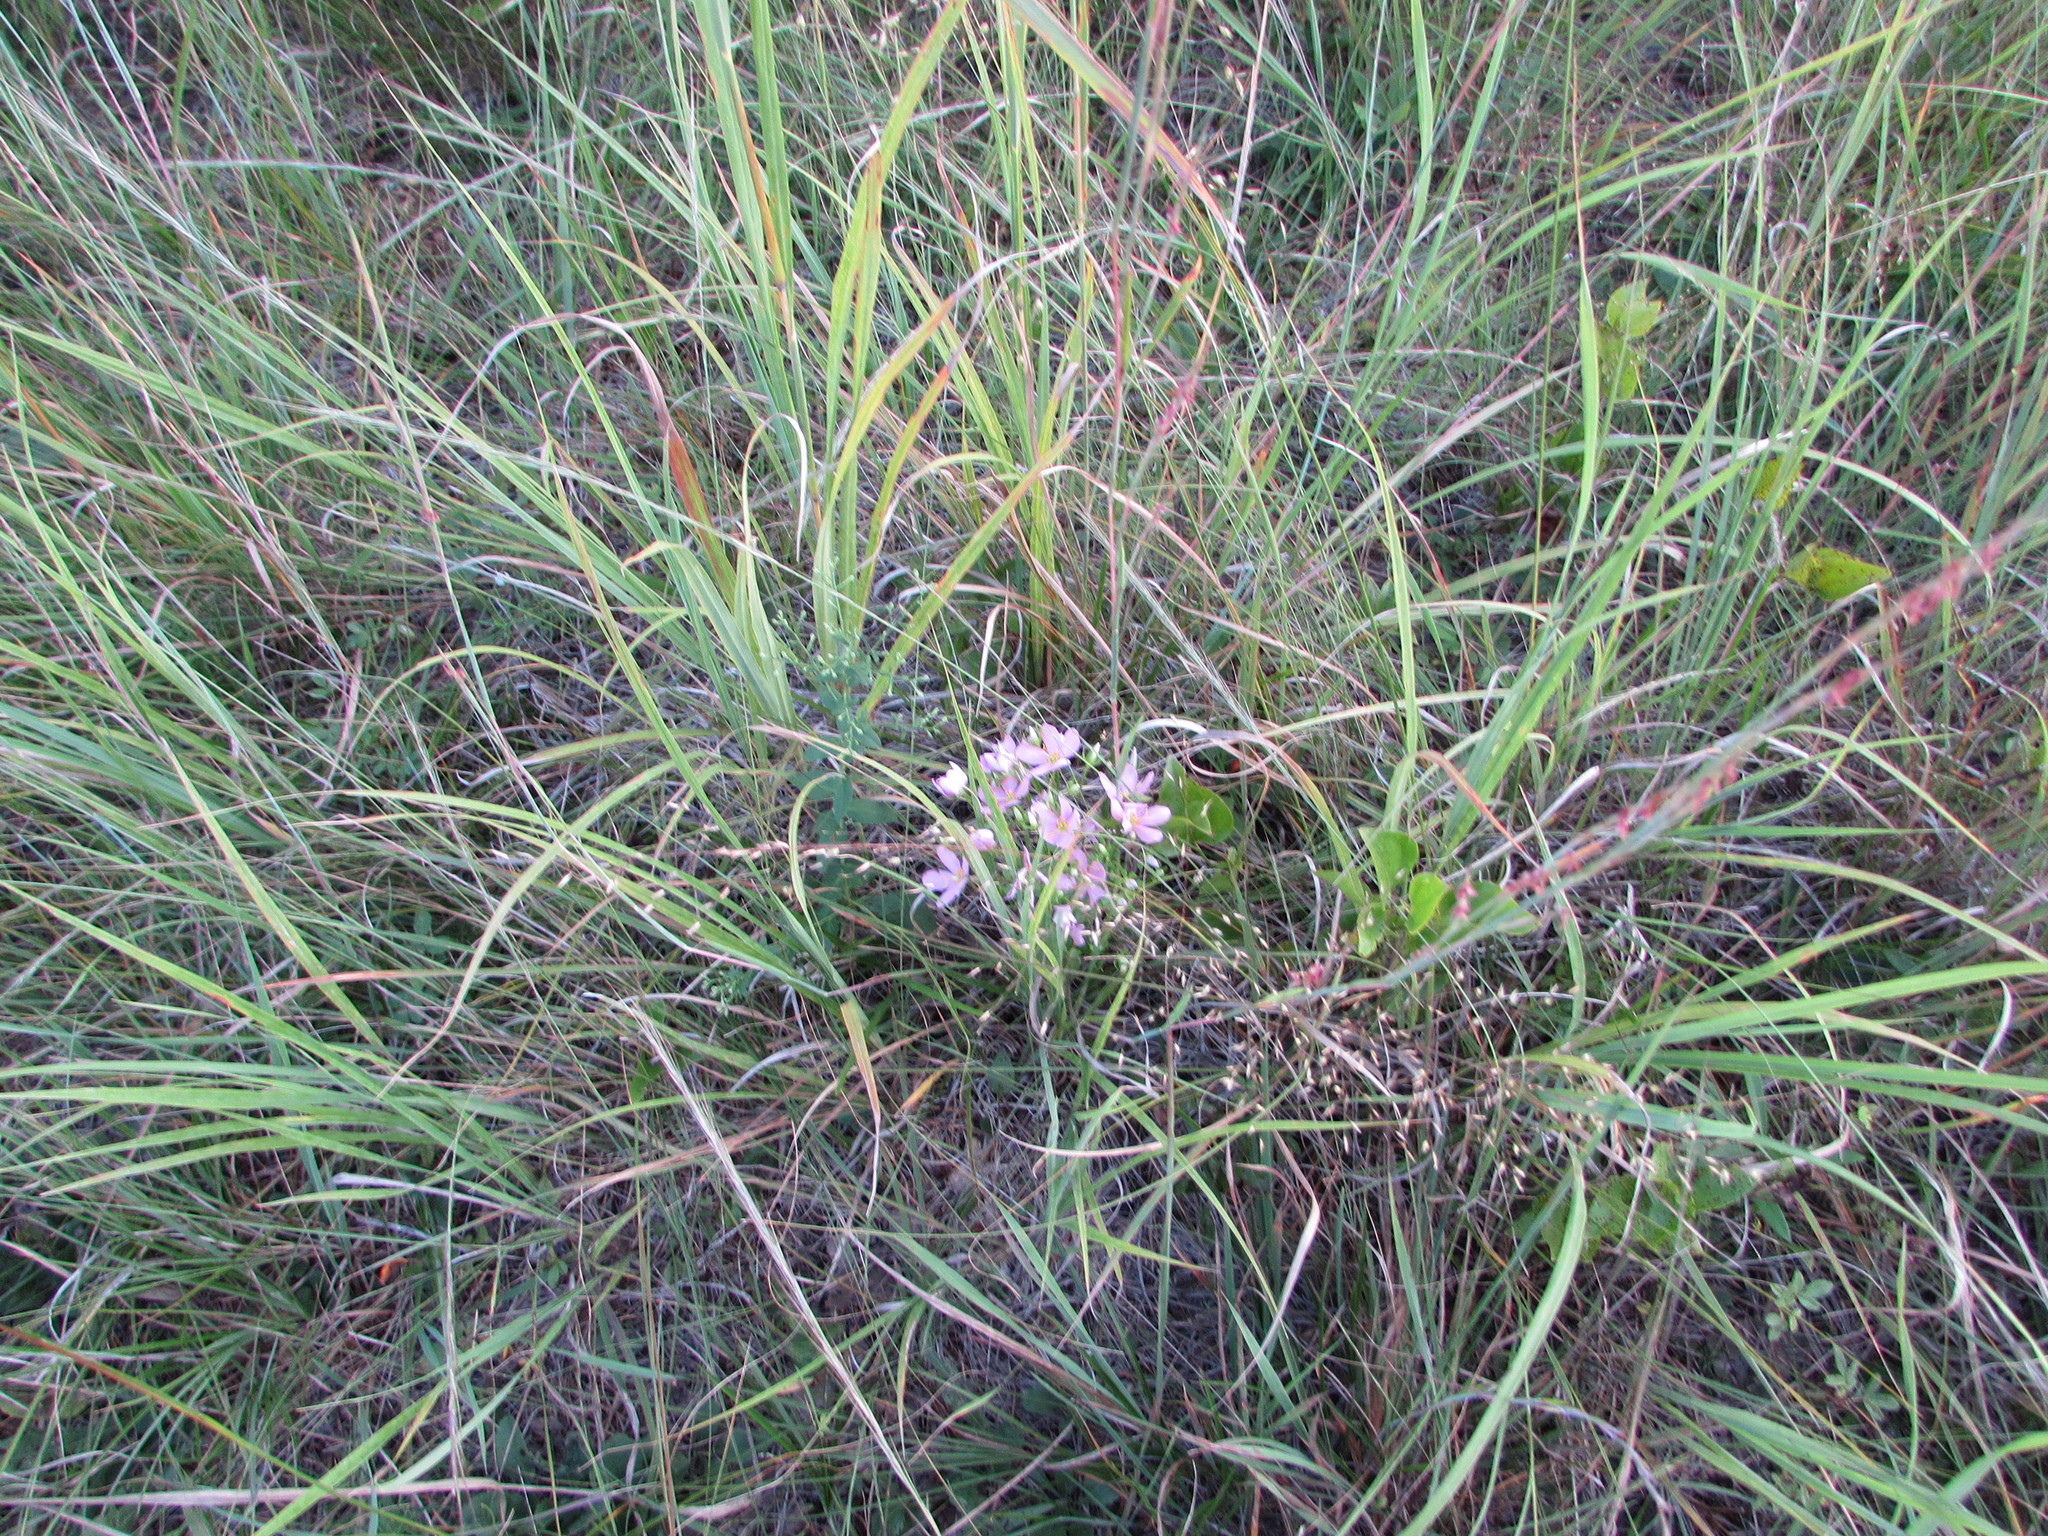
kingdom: Plantae
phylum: Tracheophyta
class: Magnoliopsida
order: Gentianales
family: Gentianaceae
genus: Sabatia
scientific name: Sabatia angularis
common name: Rose-pink
